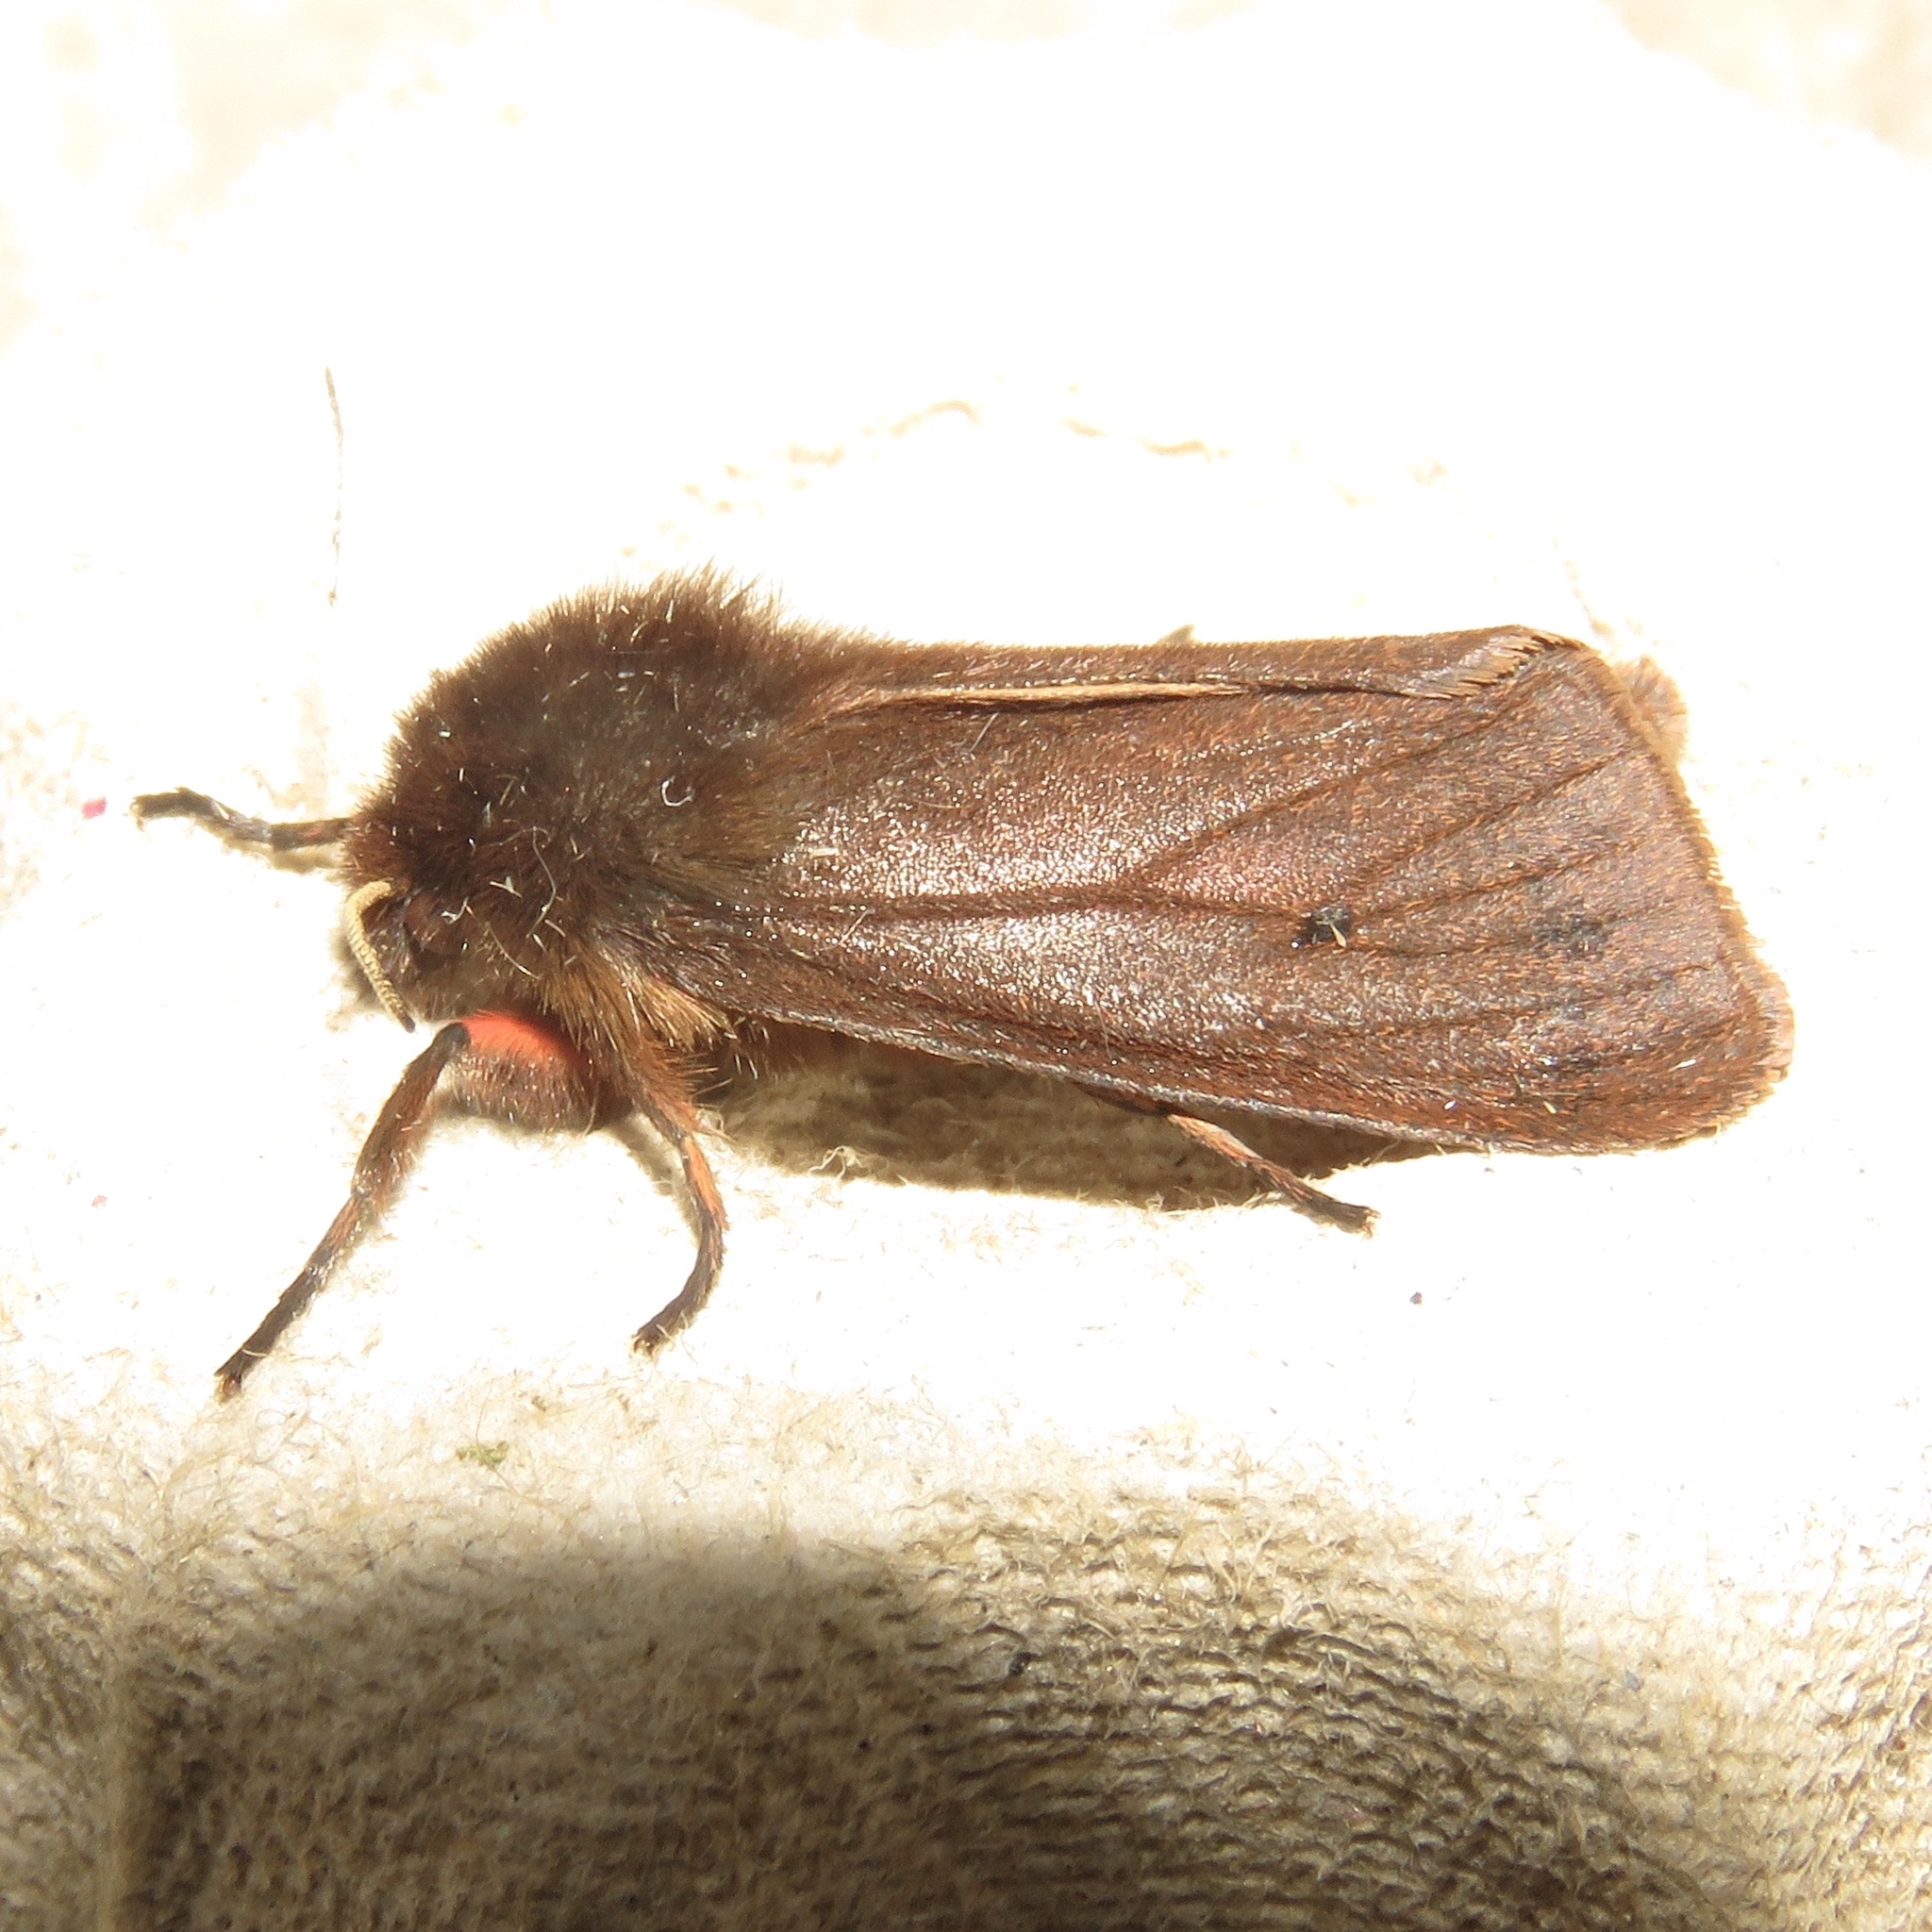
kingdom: Animalia
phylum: Arthropoda
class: Insecta
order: Lepidoptera
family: Erebidae
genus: Phragmatobia
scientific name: Phragmatobia fuliginosa
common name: Ruby tiger
